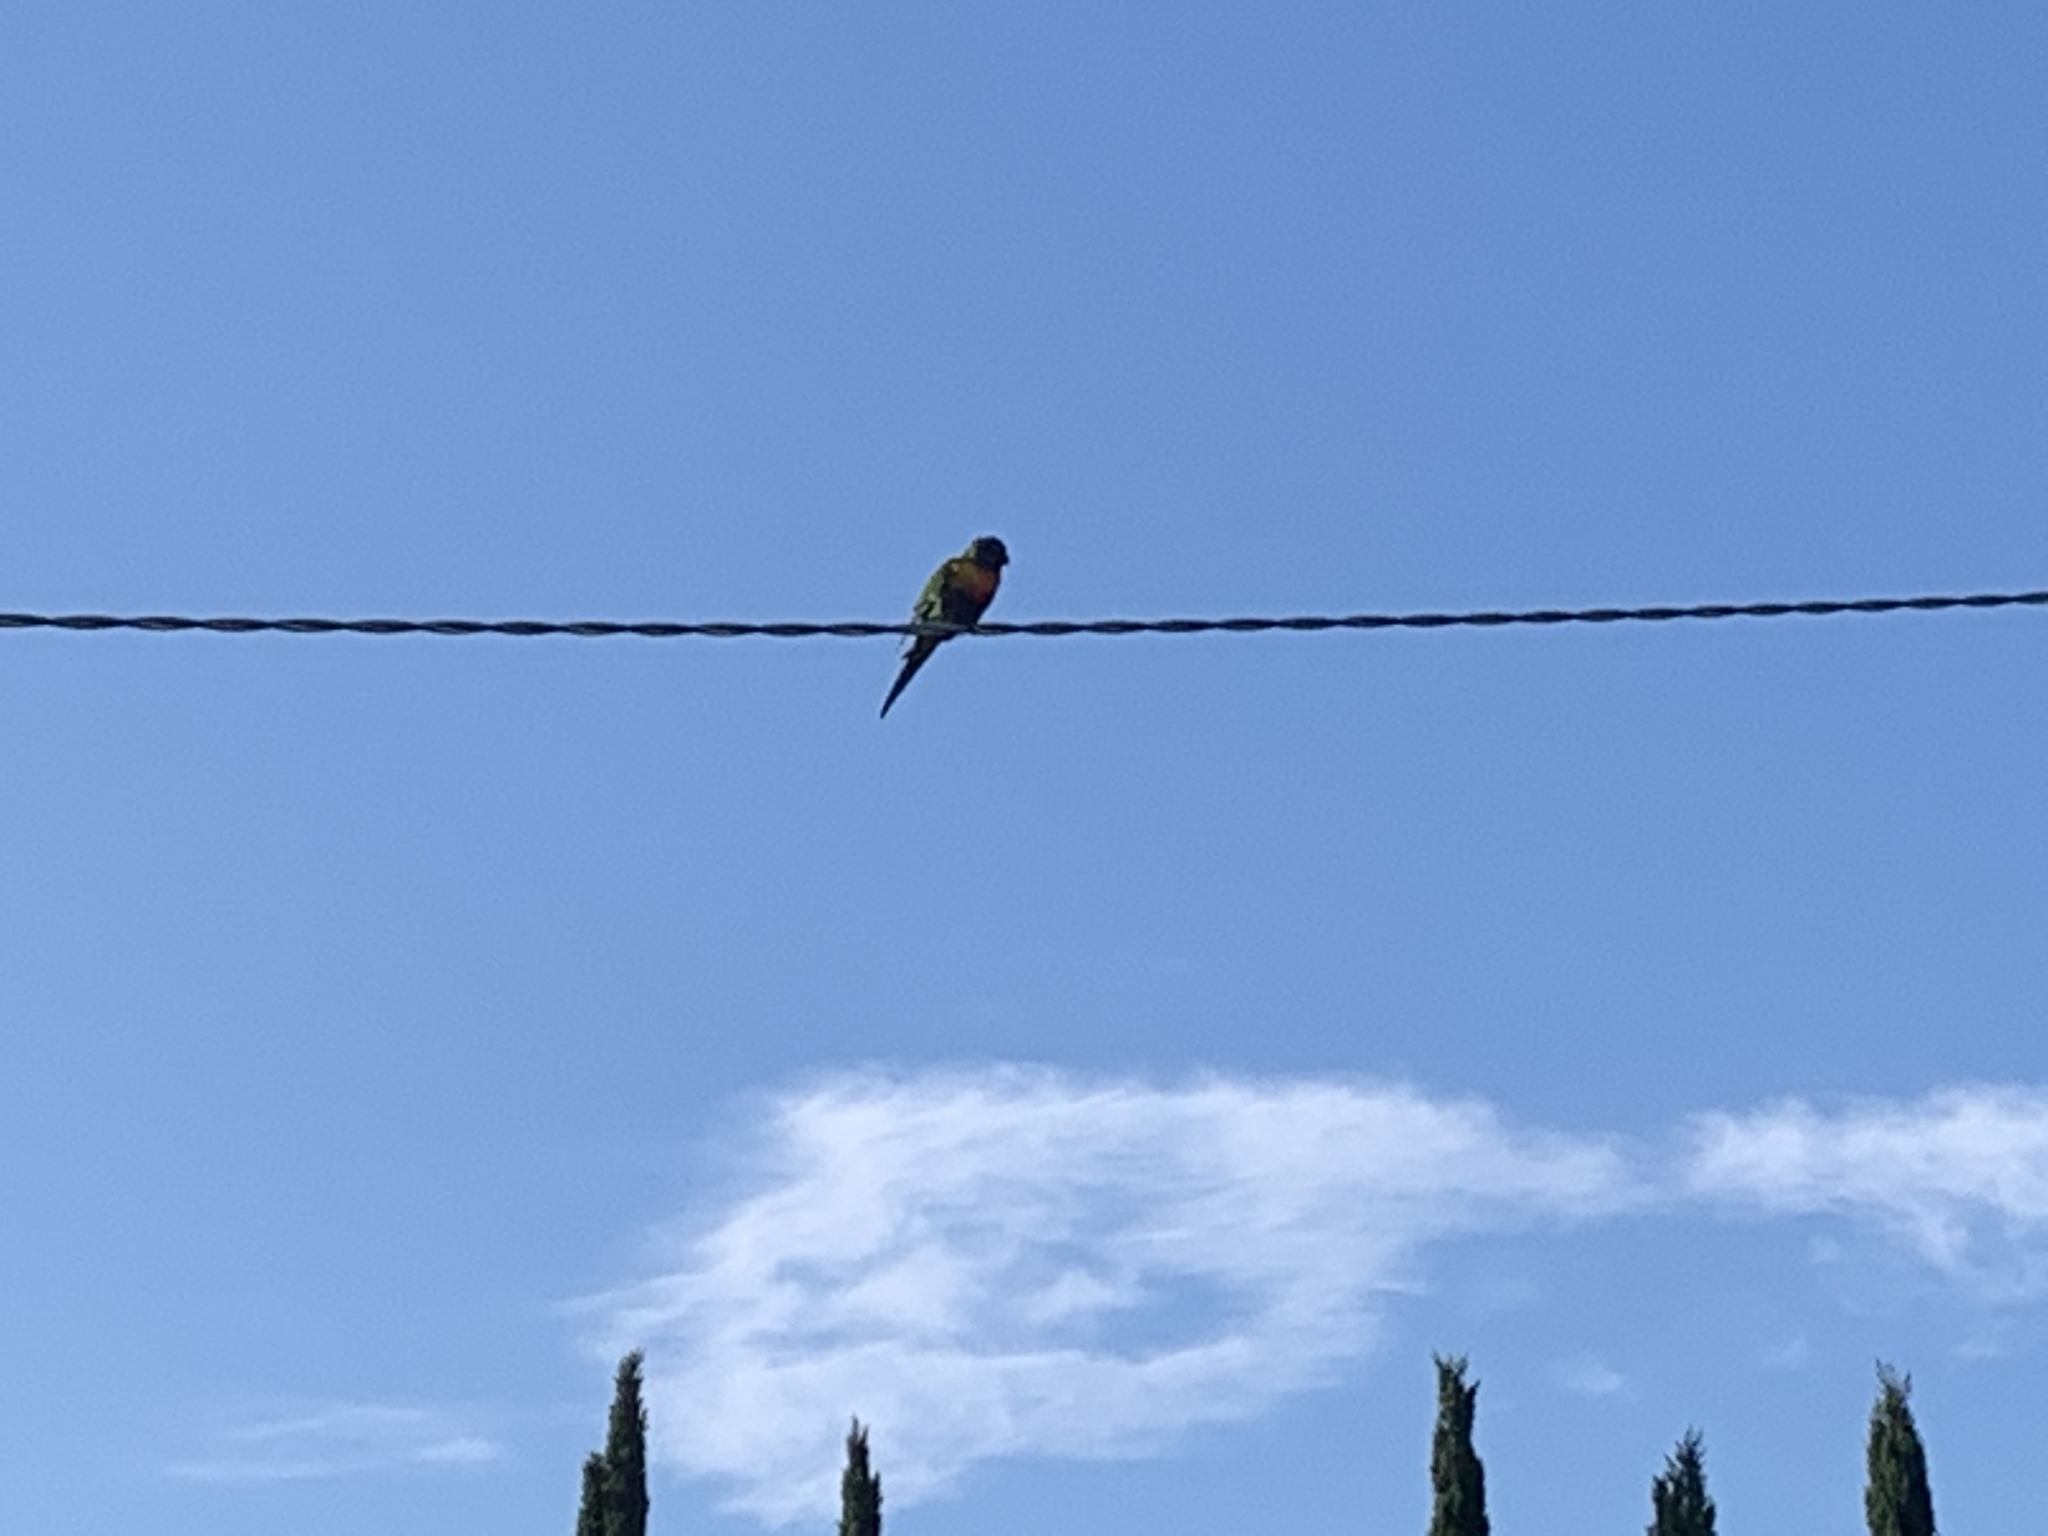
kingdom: Animalia
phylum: Chordata
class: Aves
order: Psittaciformes
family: Psittacidae
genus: Trichoglossus
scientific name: Trichoglossus haematodus
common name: Coconut lorikeet
